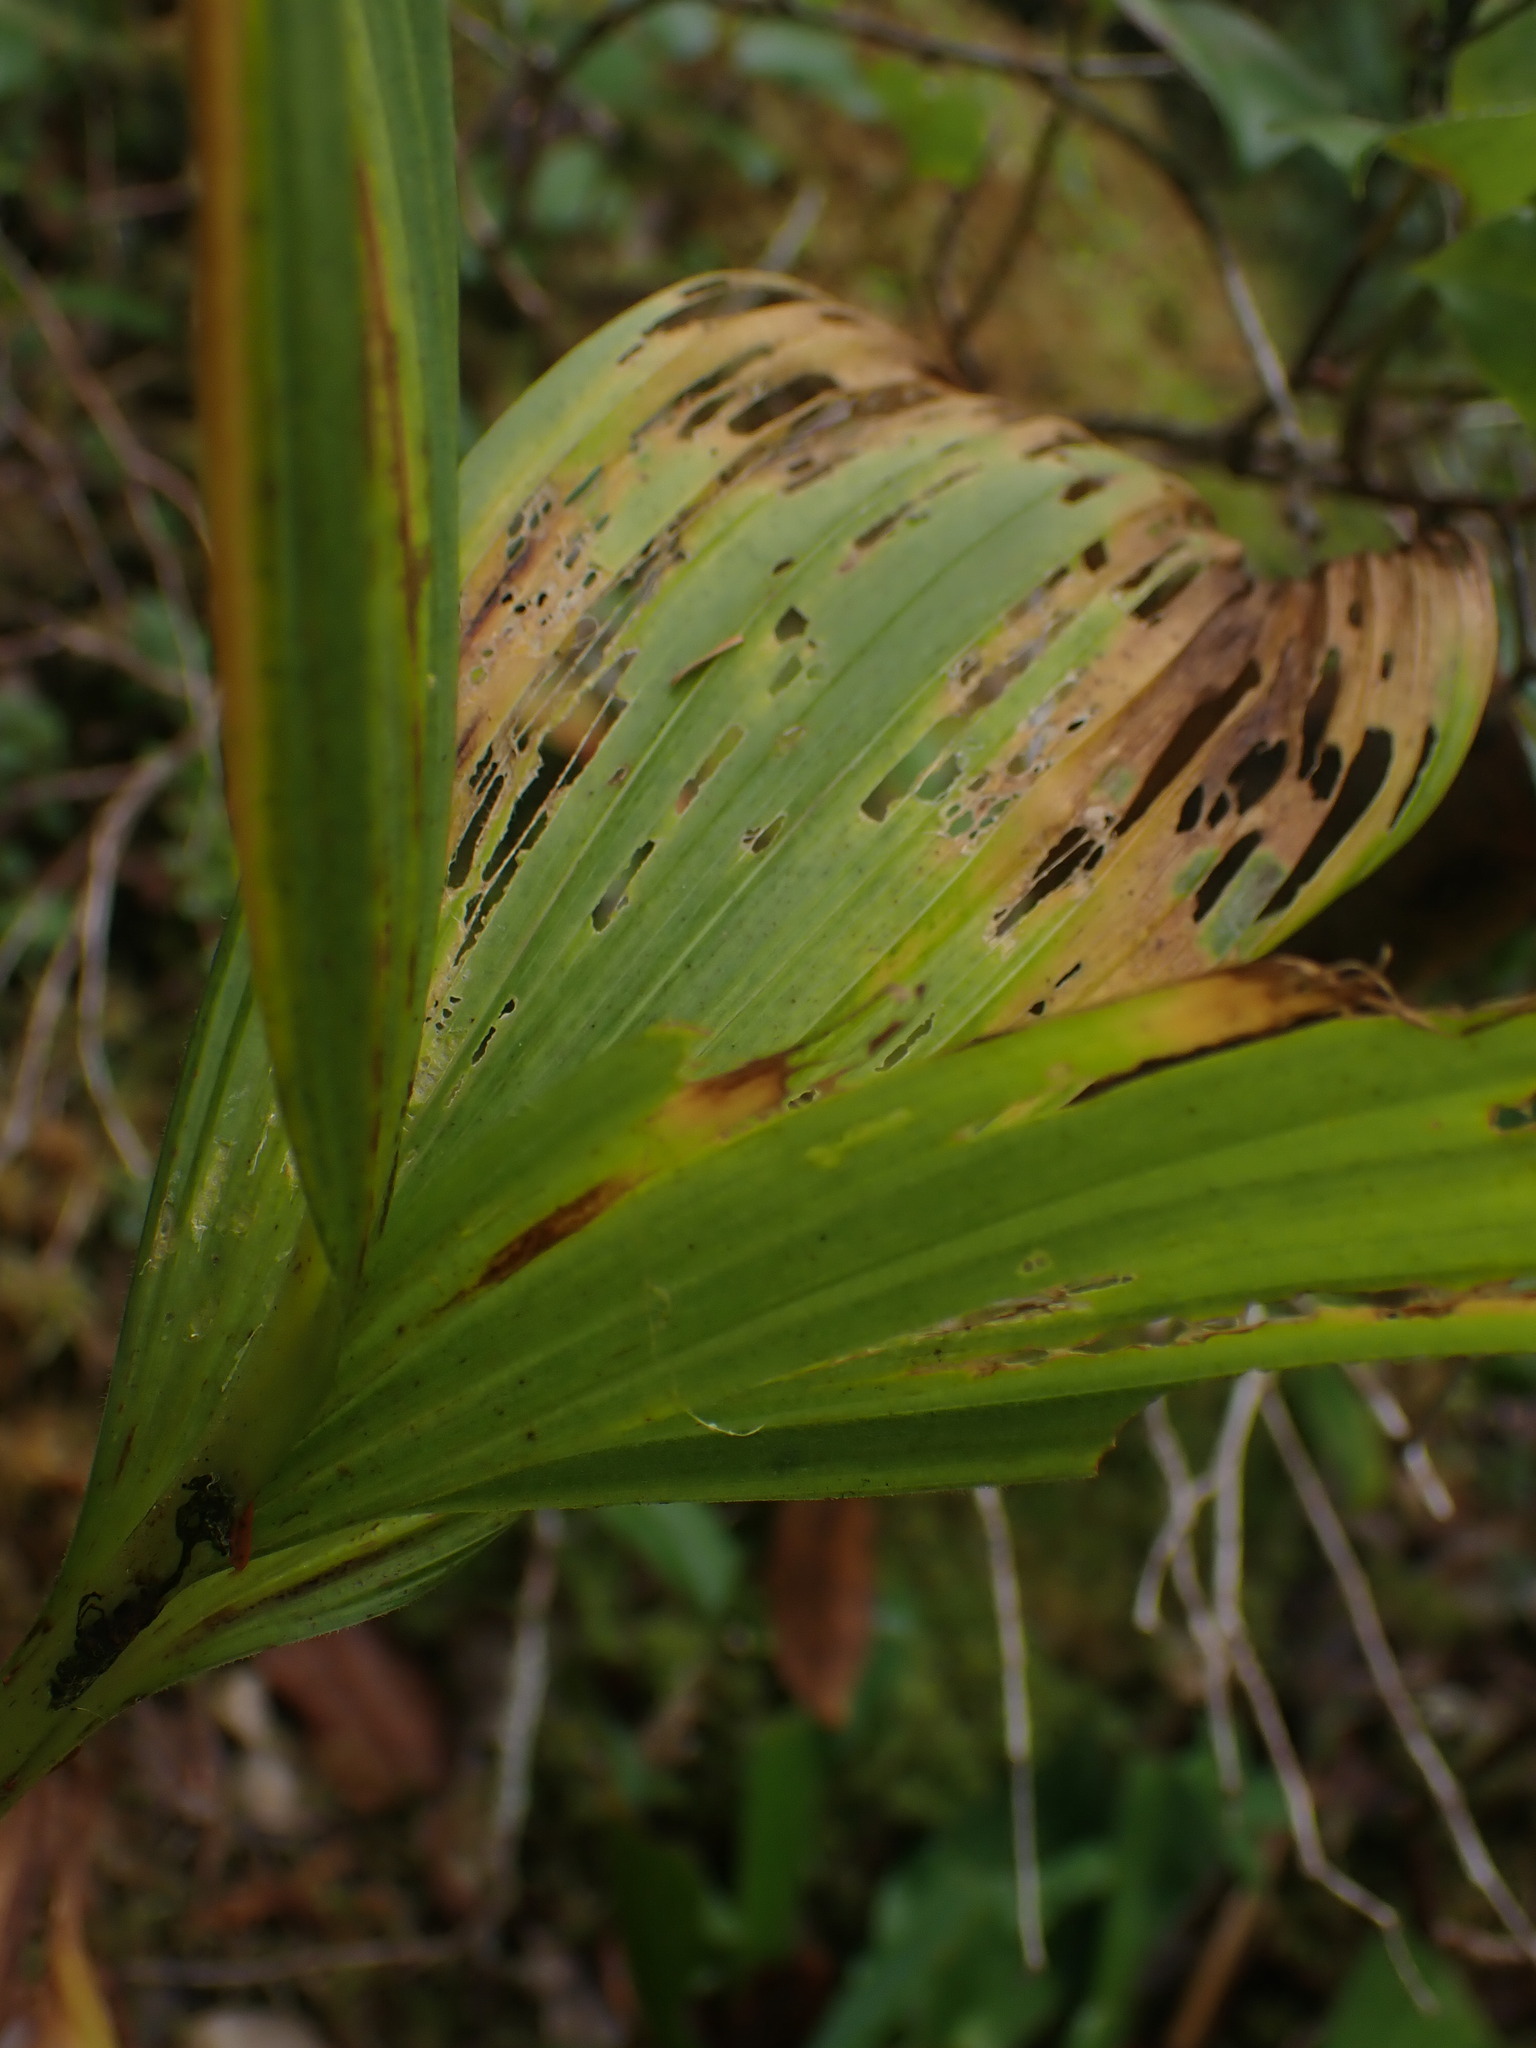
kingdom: Plantae
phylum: Tracheophyta
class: Liliopsida
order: Liliales
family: Melanthiaceae
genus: Veratrum
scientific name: Veratrum viride
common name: American false hellebore
